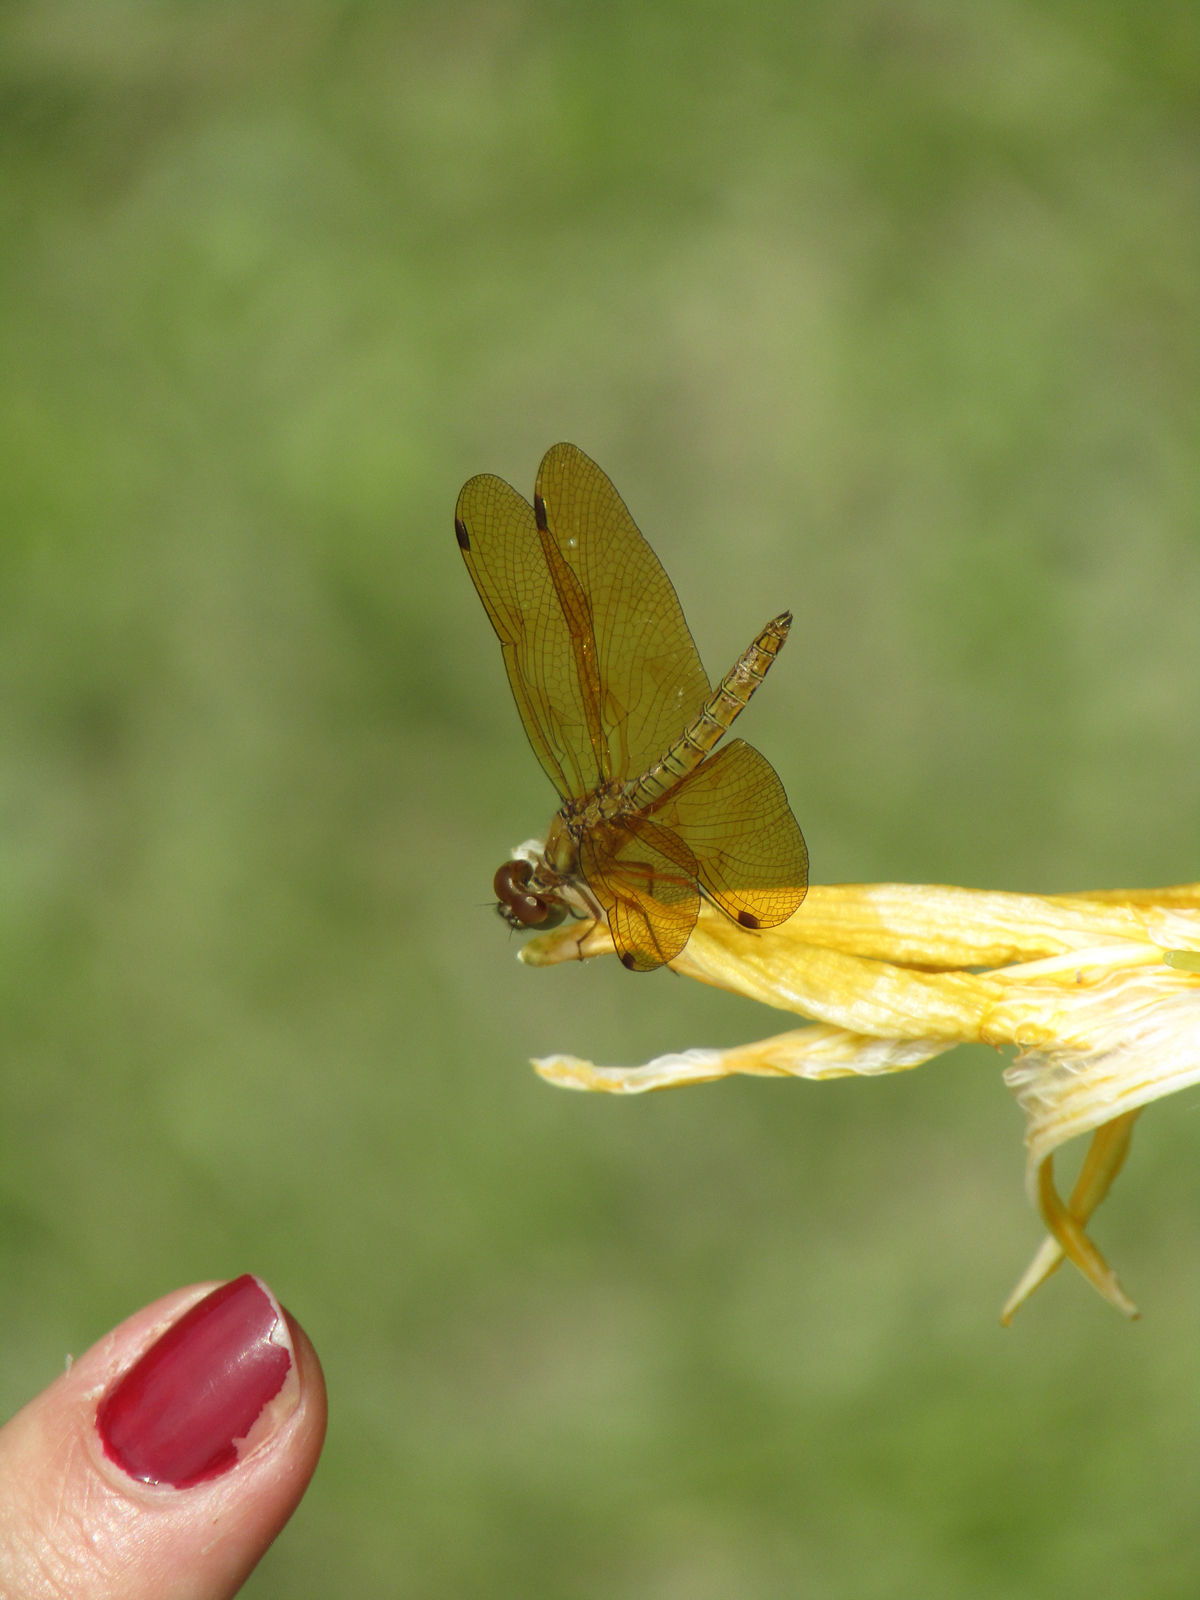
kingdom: Animalia
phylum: Arthropoda
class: Insecta
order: Odonata
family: Libellulidae
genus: Perithemis
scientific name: Perithemis icteroptera
